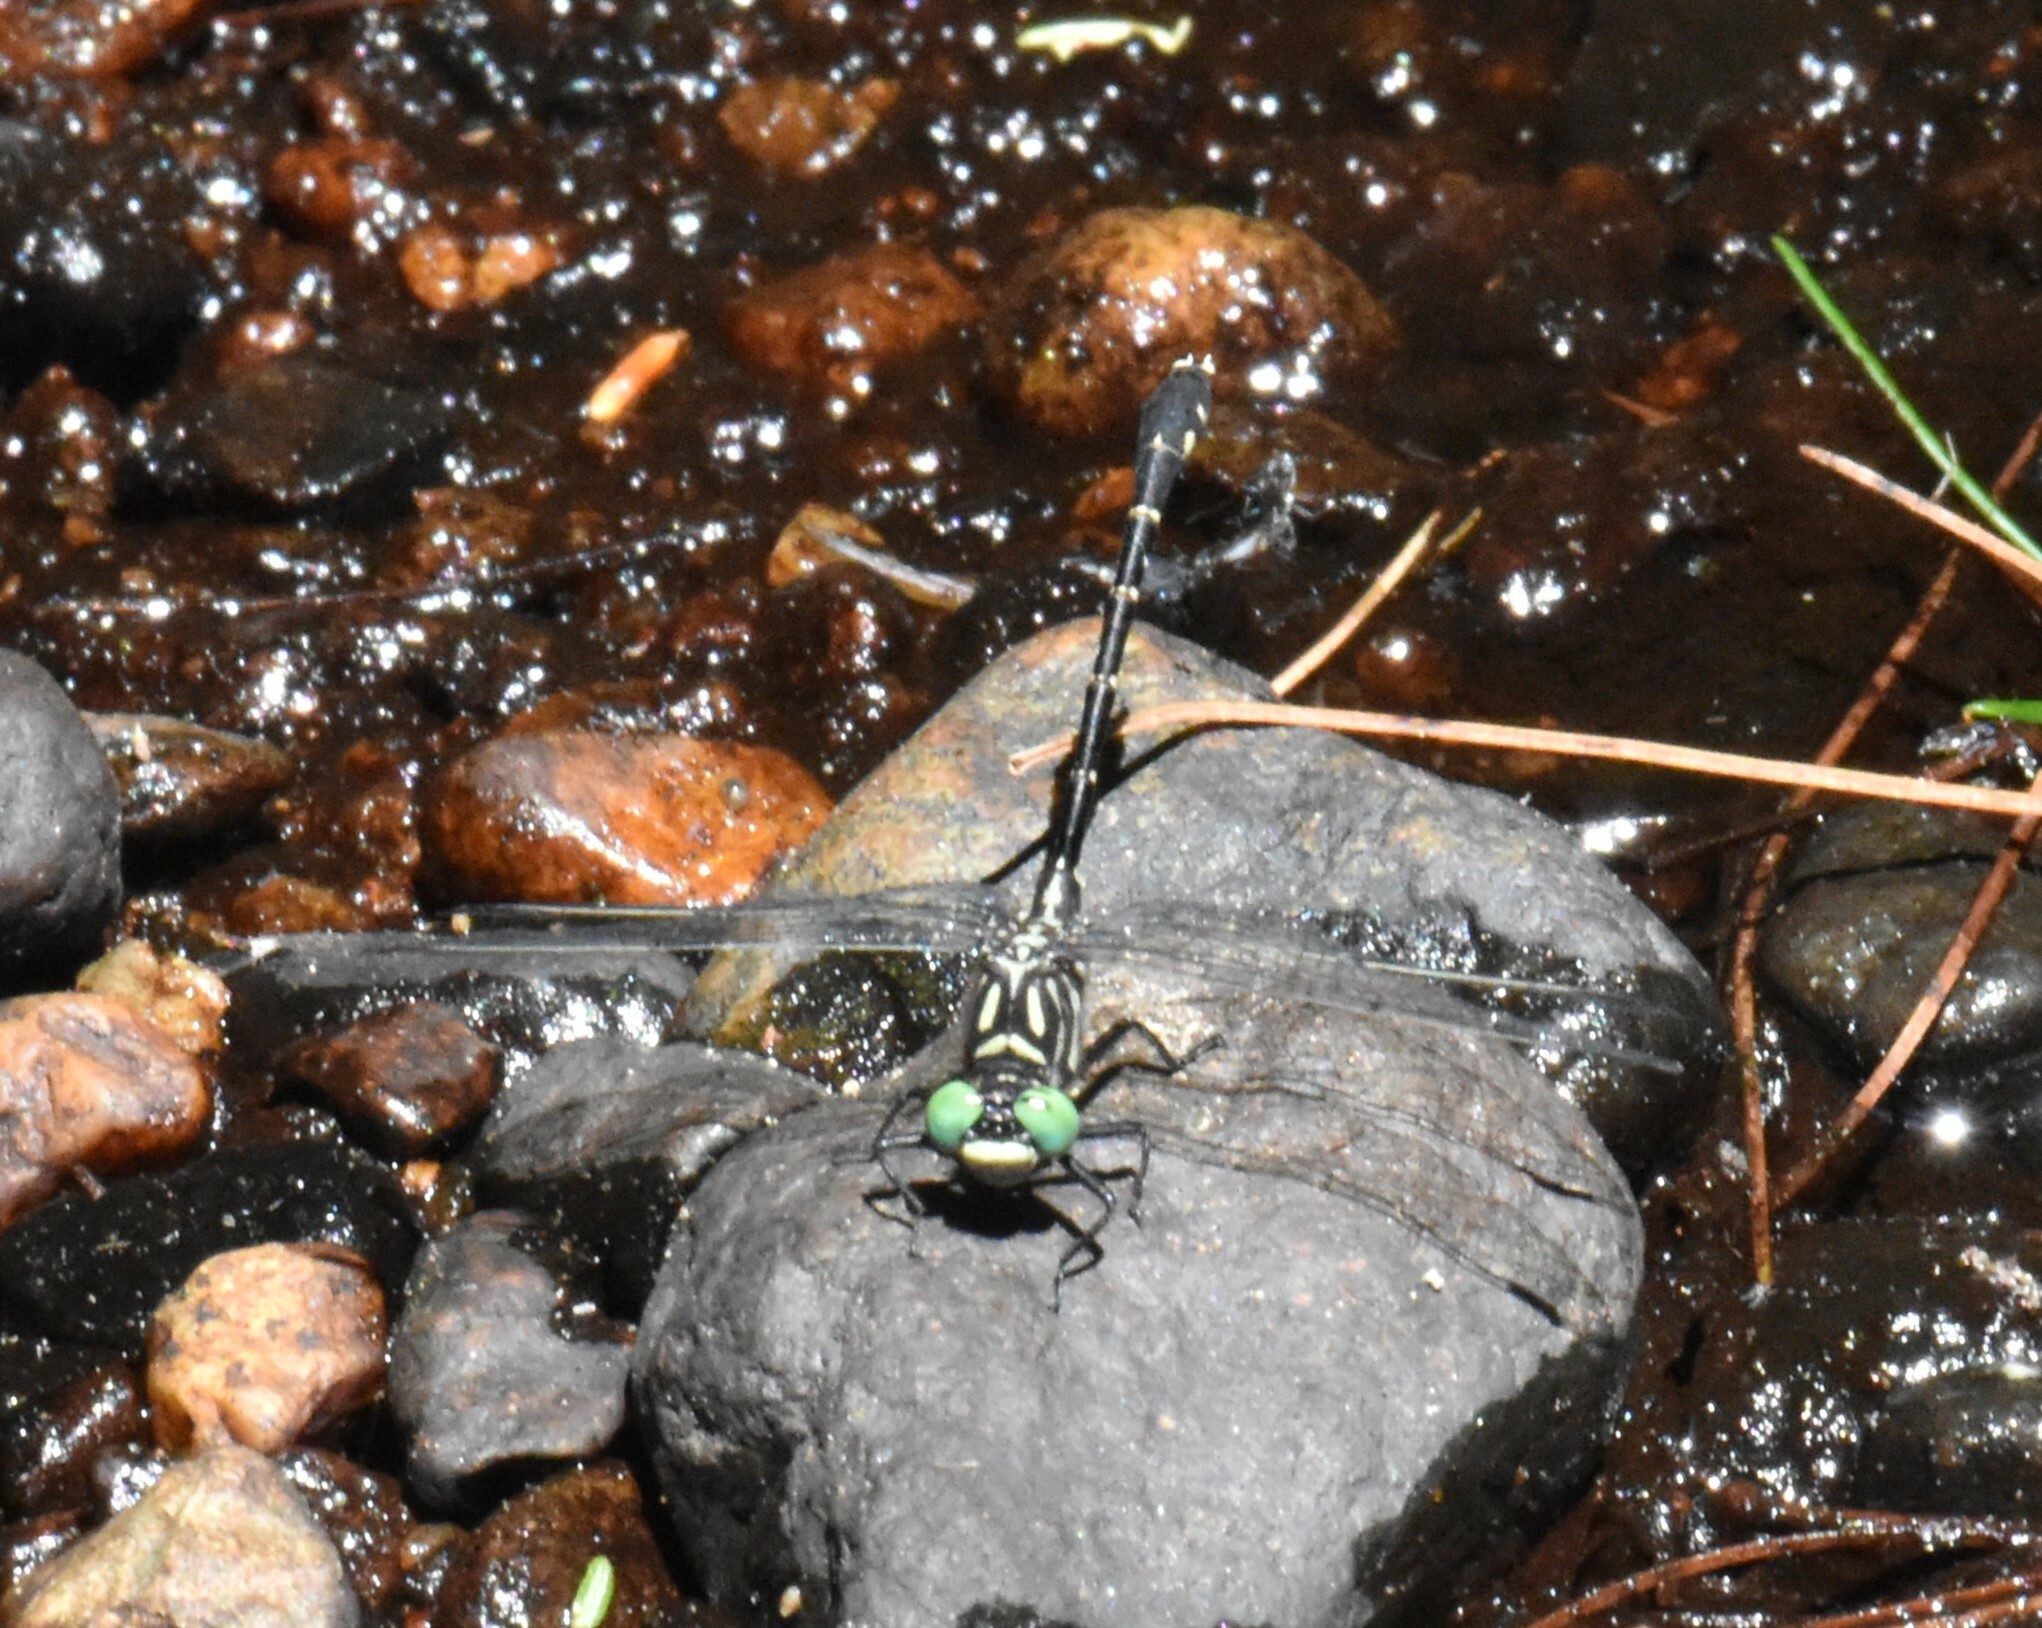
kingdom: Animalia
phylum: Arthropoda
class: Insecta
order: Odonata
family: Gomphidae
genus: Stylogomphus
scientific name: Stylogomphus albistylus
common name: Eastern least clubtail
